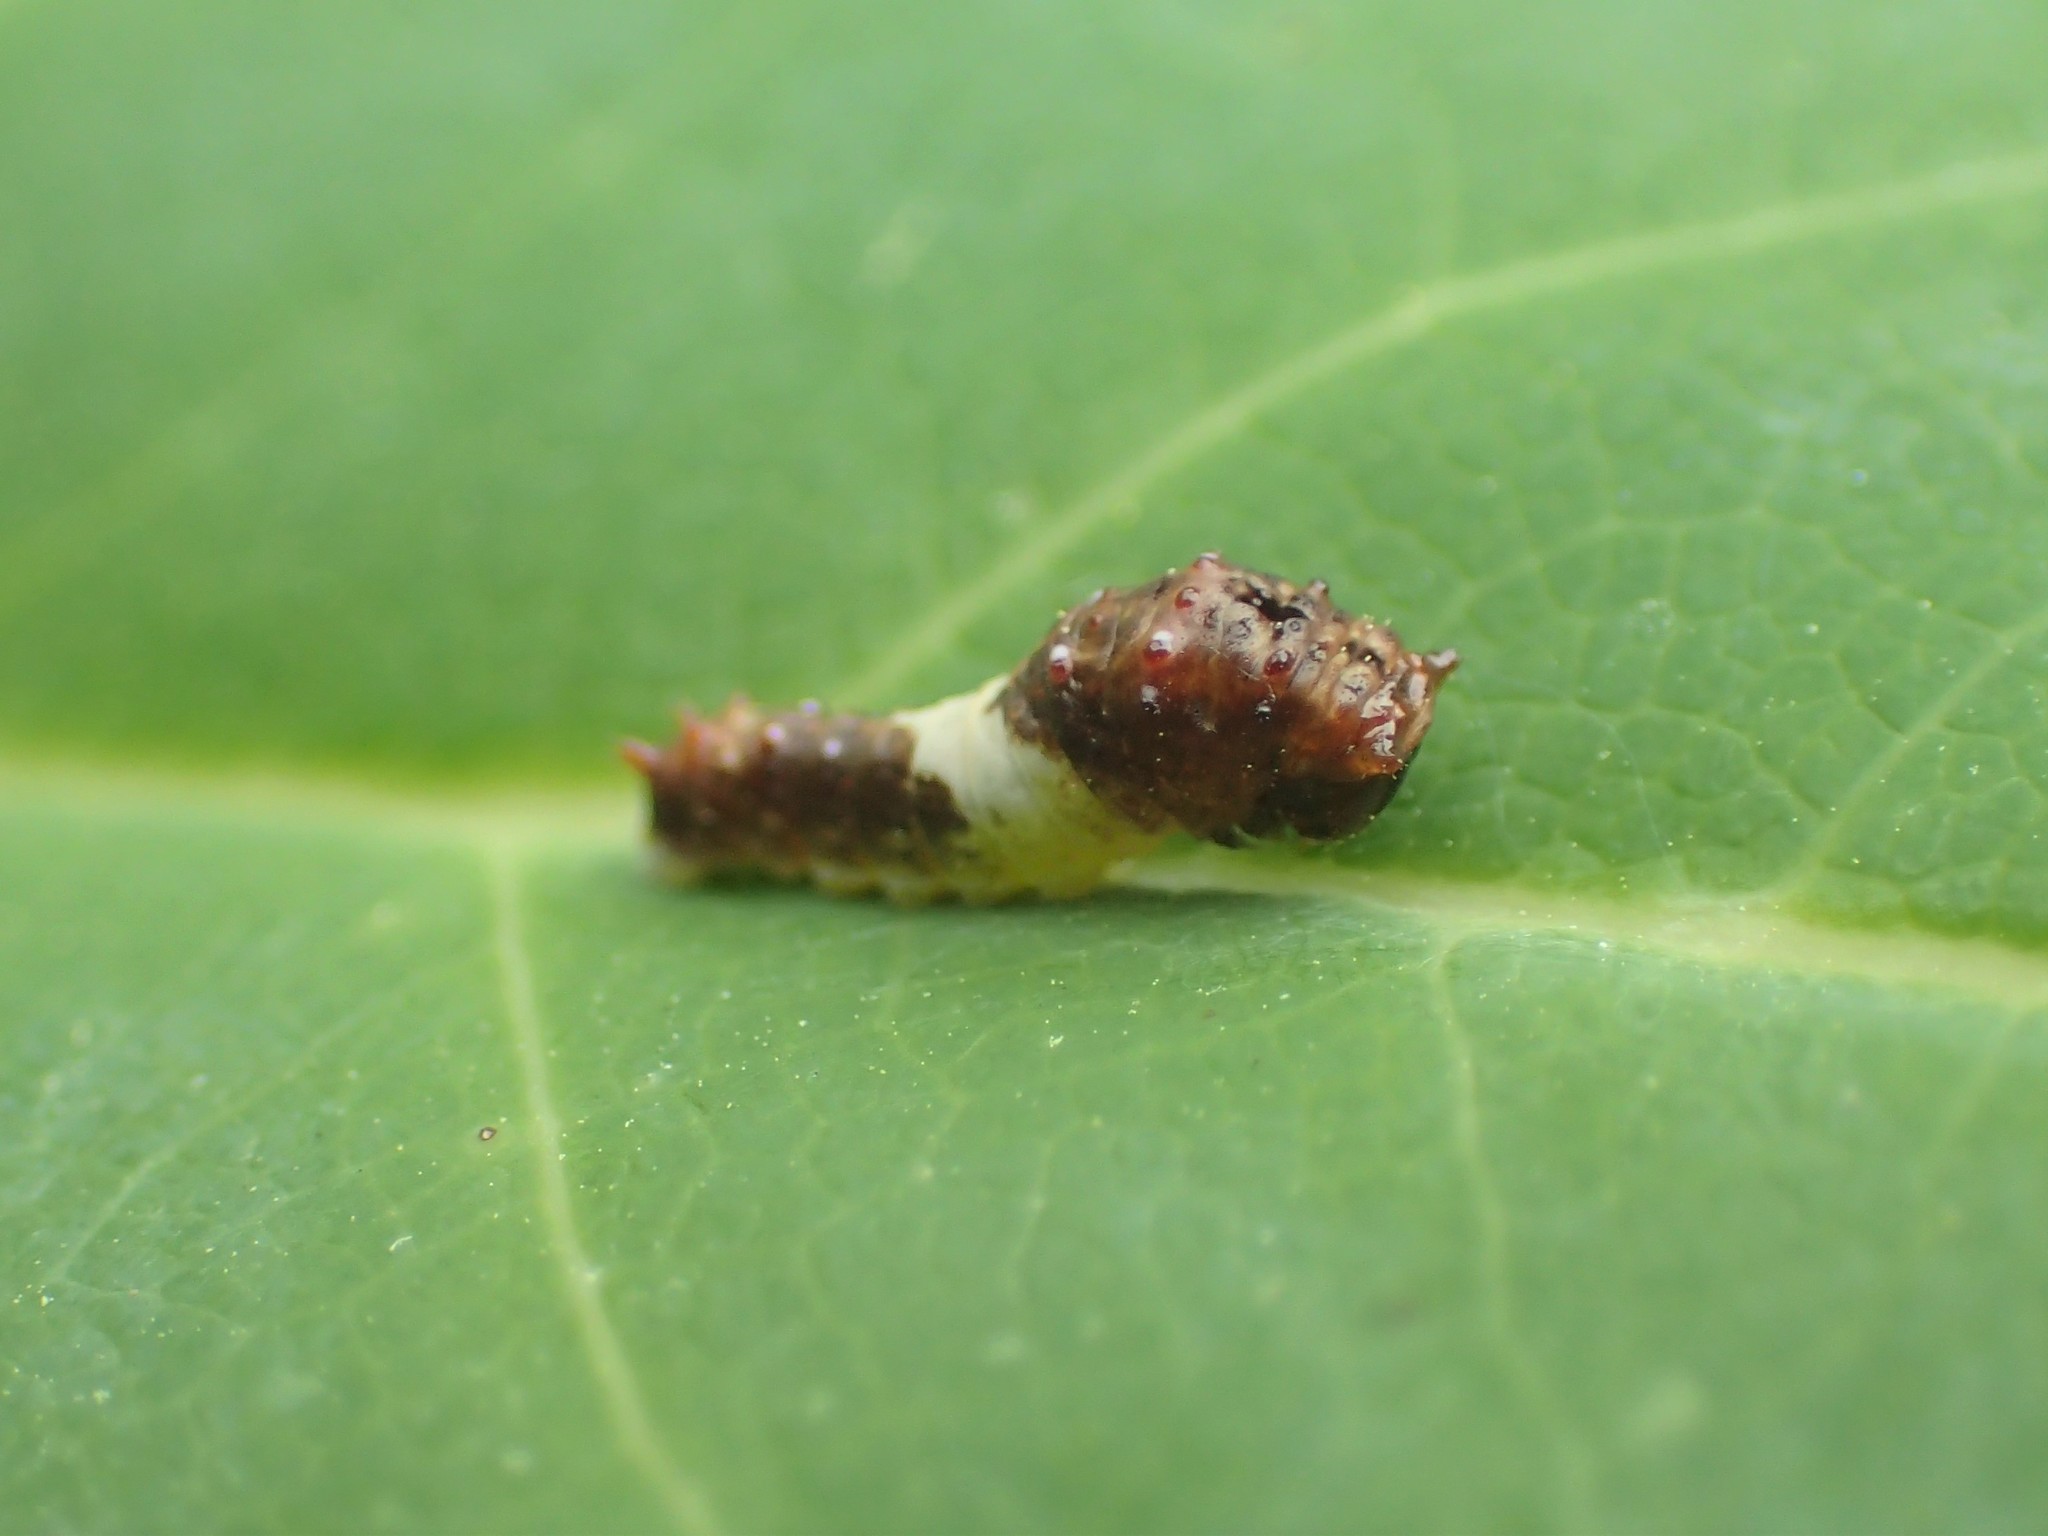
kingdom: Animalia
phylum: Arthropoda
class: Insecta
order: Lepidoptera
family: Papilionidae
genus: Papilio
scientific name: Papilio glaucus
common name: Tiger swallowtail
